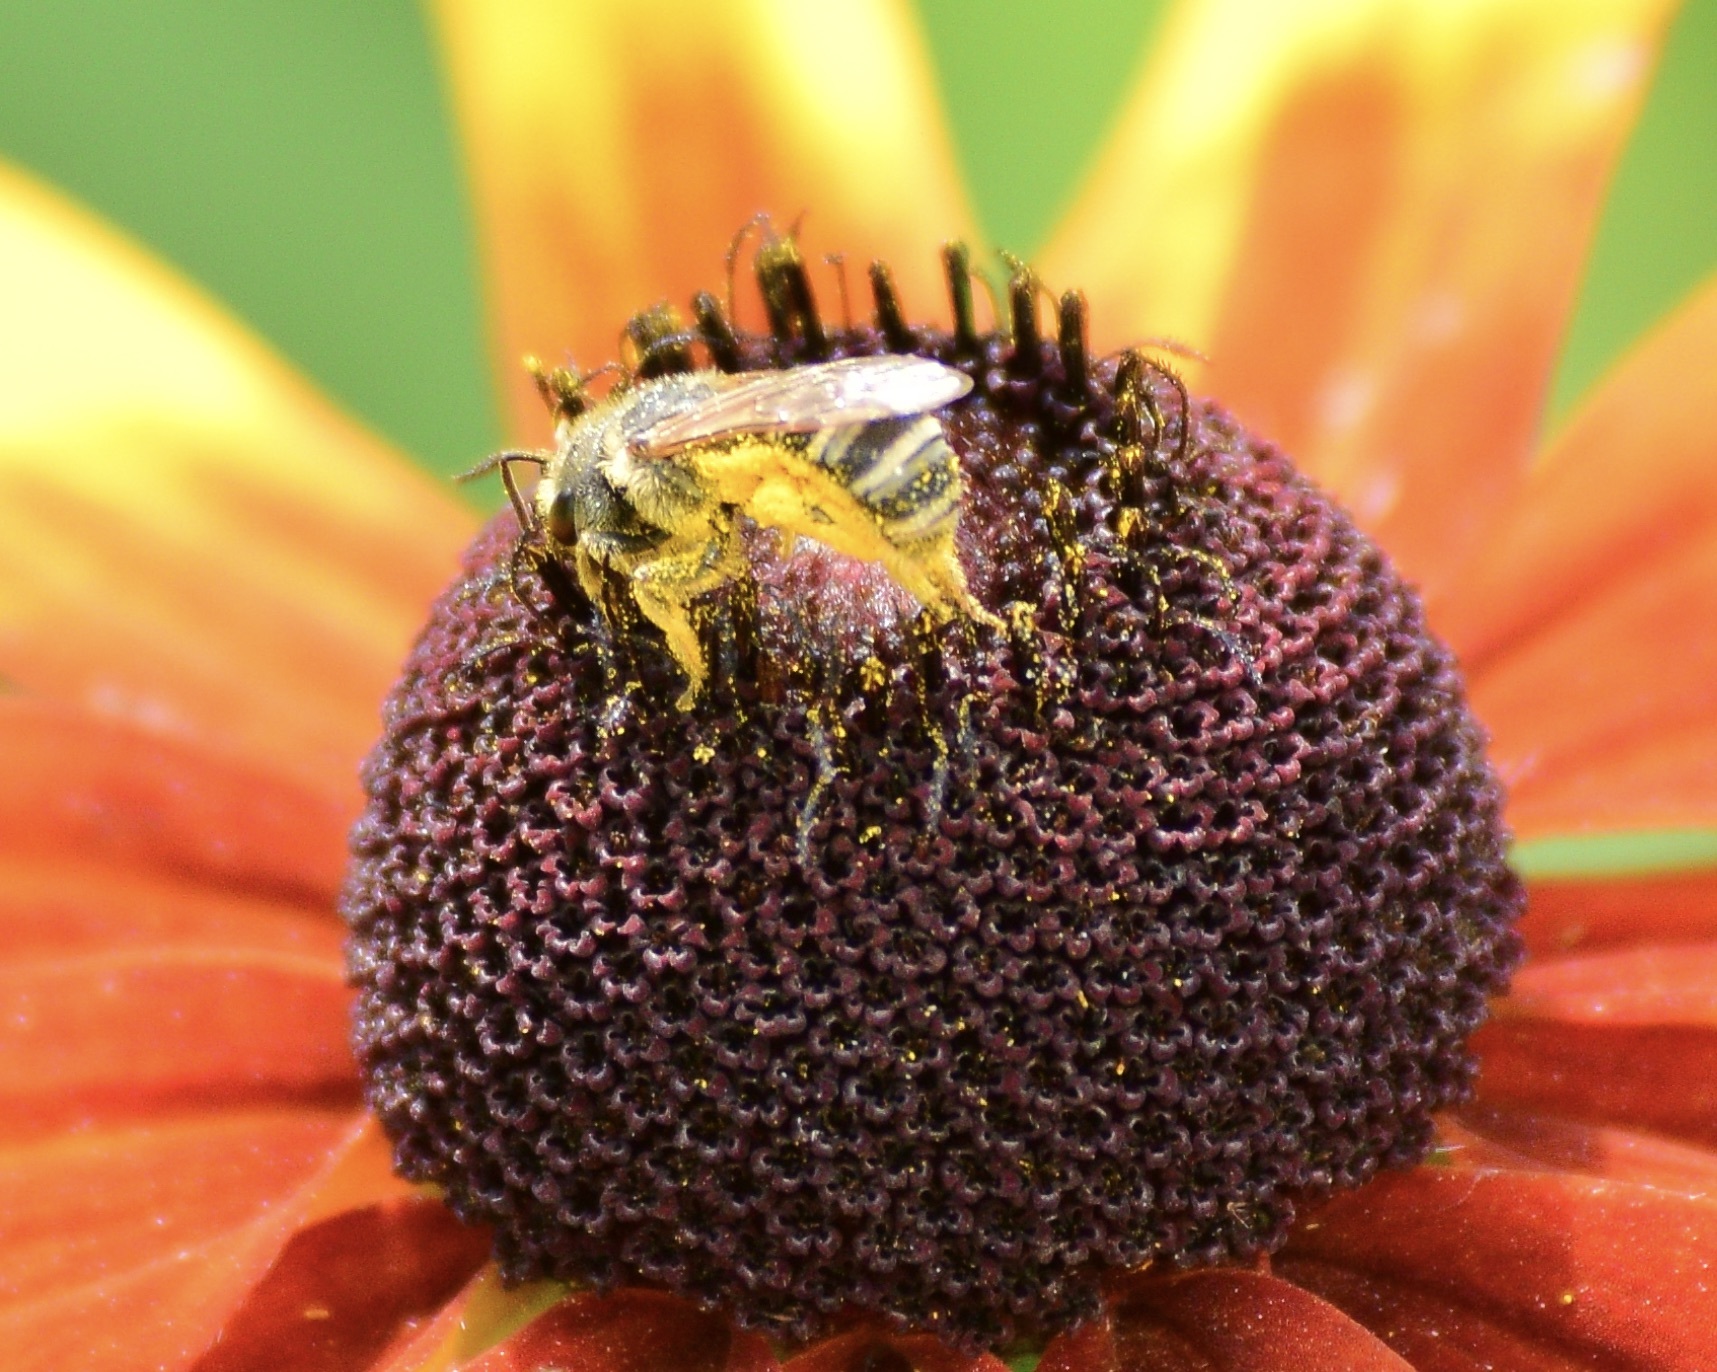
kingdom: Animalia
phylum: Arthropoda
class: Insecta
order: Hymenoptera
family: Halictidae
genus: Halictus
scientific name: Halictus ligatus
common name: Ligated furrow bee
